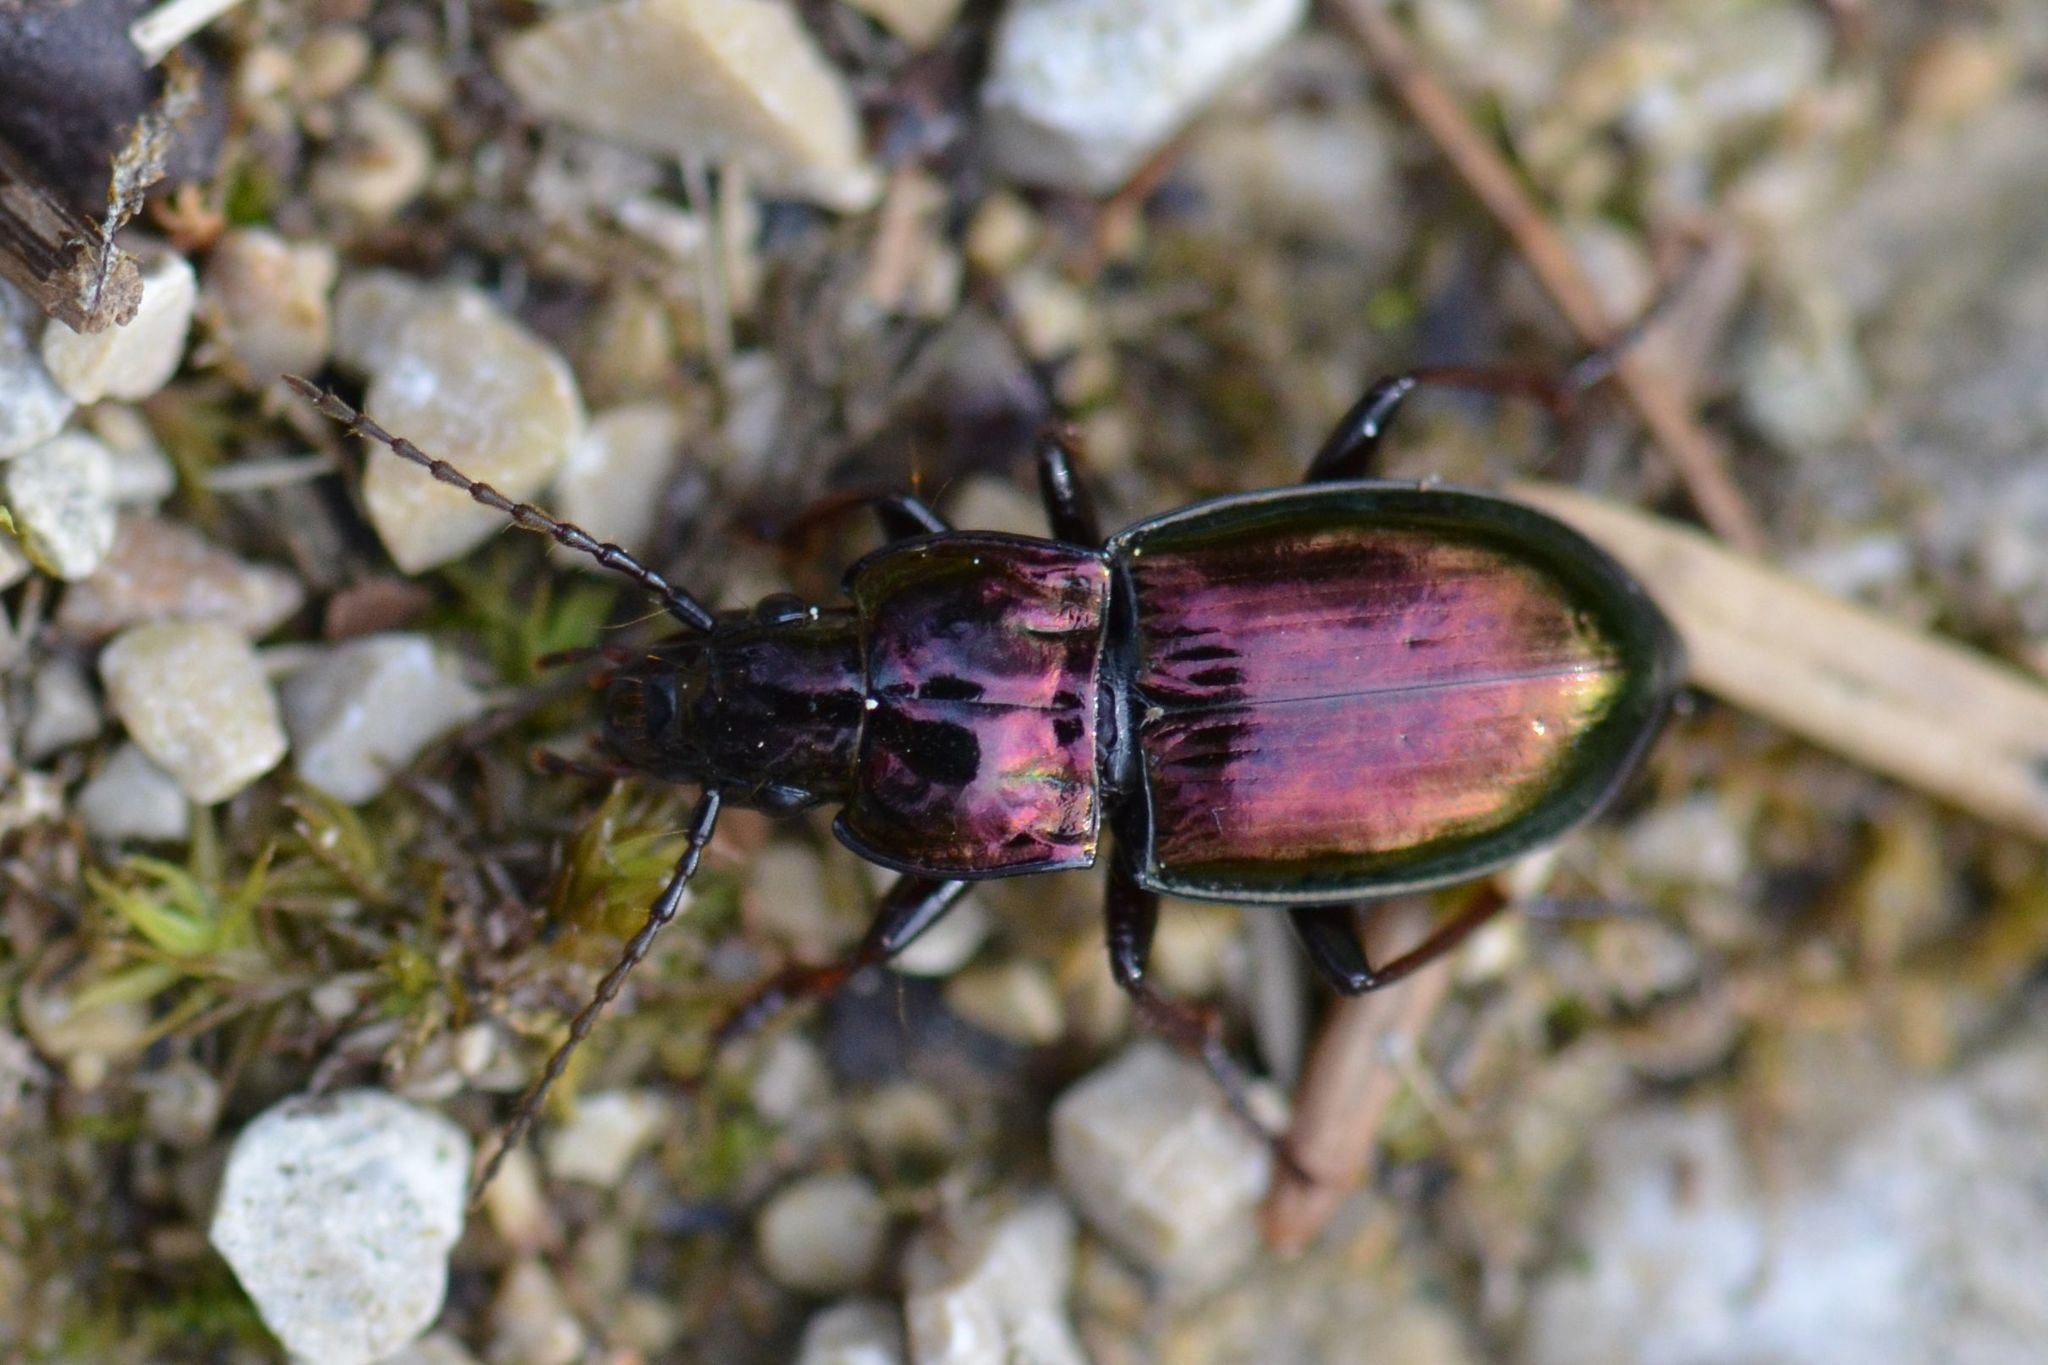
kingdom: Animalia
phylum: Arthropoda
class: Insecta
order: Coleoptera
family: Carabidae
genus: Pterostichus
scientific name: Pterostichus burmeisteri
